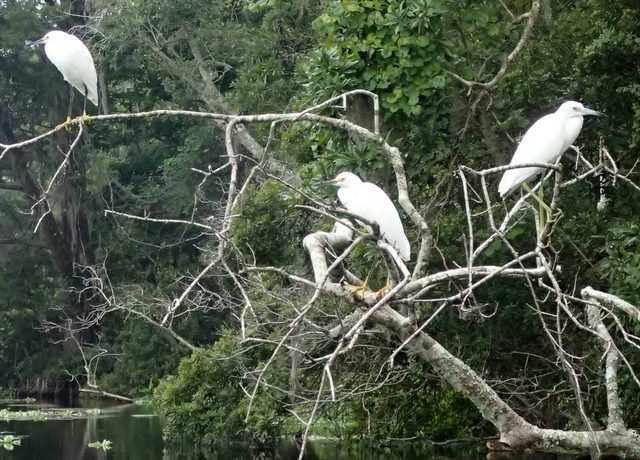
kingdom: Animalia
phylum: Chordata
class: Aves
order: Pelecaniformes
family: Ardeidae
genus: Egretta
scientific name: Egretta thula
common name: Snowy egret
